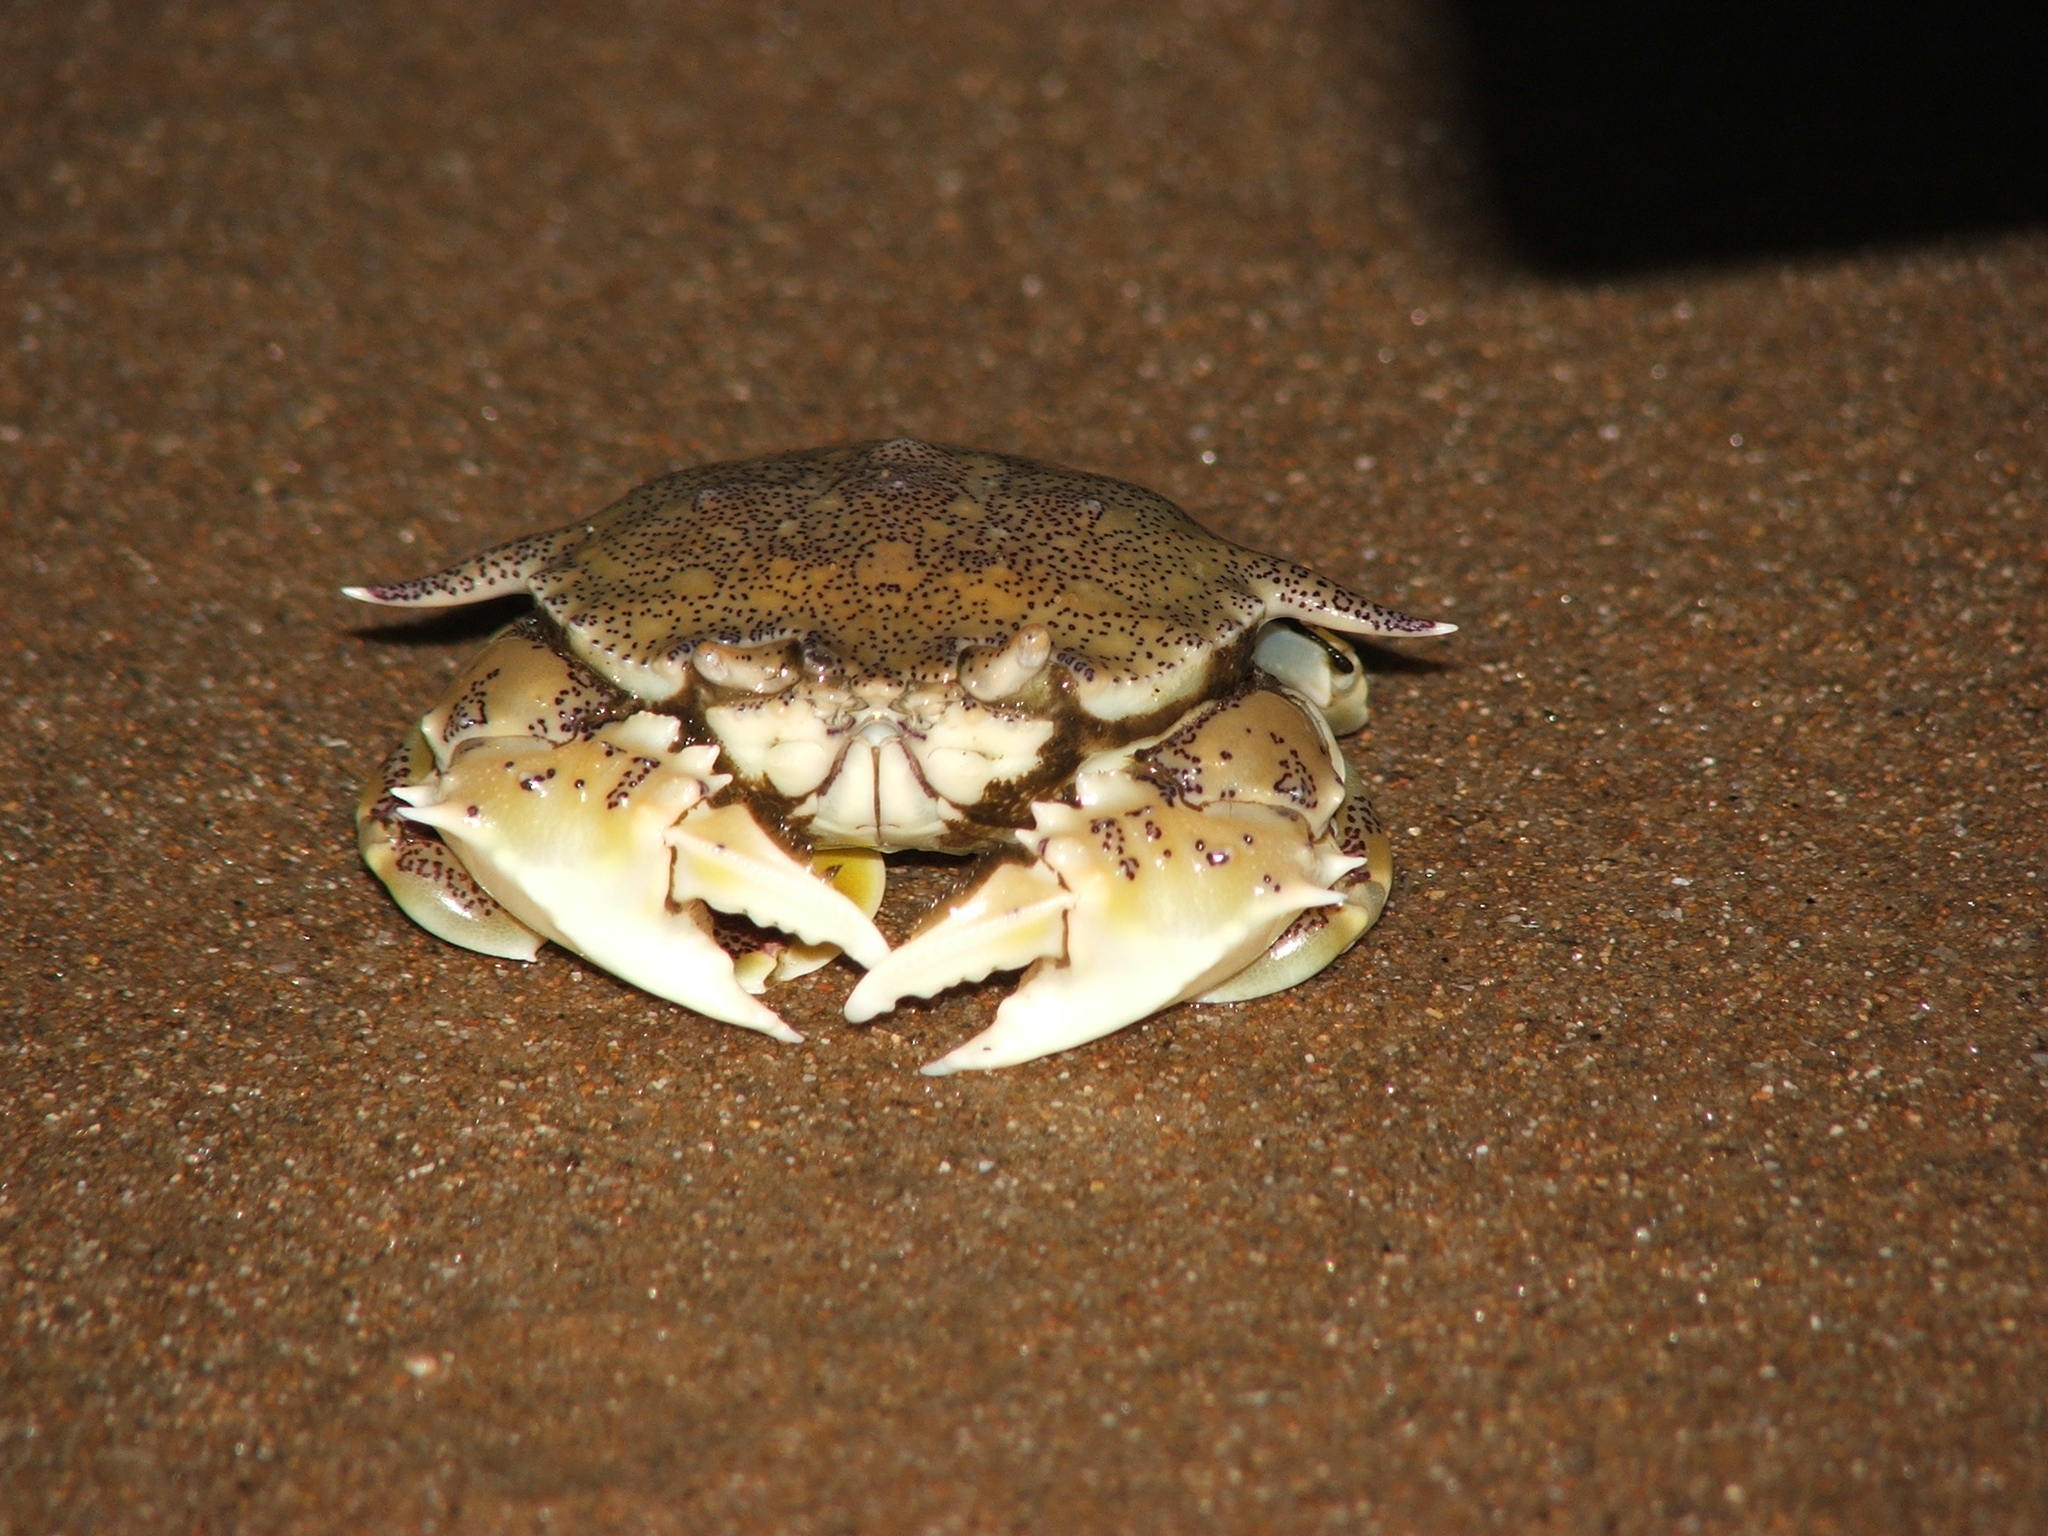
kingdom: Animalia
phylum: Arthropoda
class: Malacostraca
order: Decapoda
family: Matutidae
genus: Matuta
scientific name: Matuta victor
